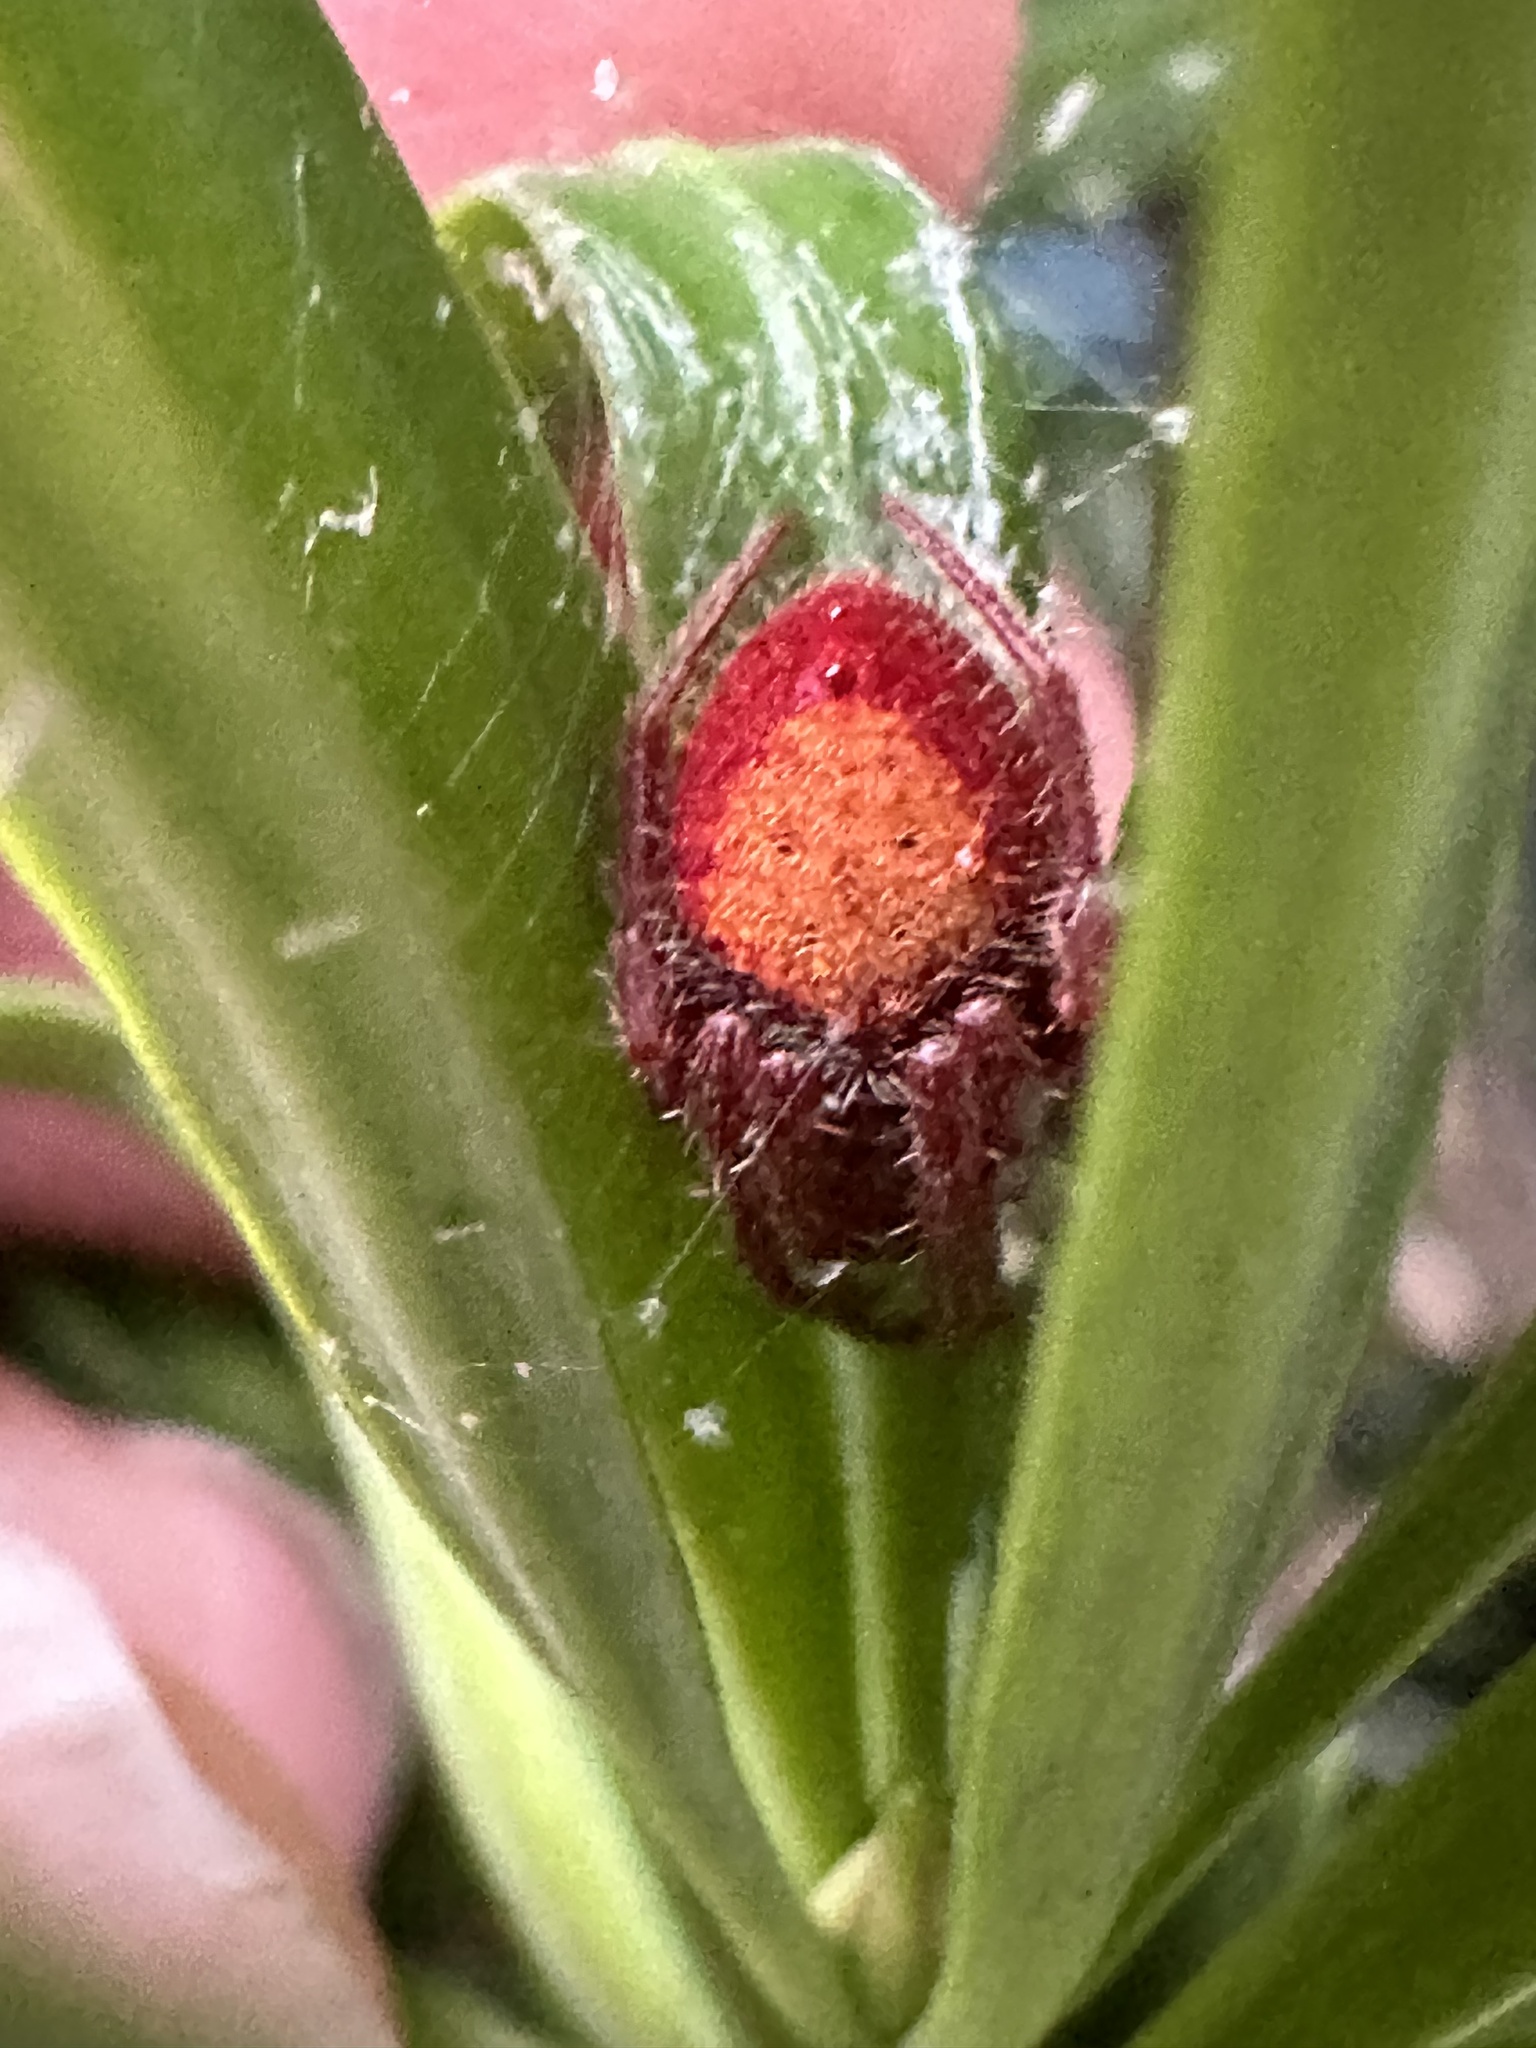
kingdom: Animalia
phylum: Arthropoda
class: Arachnida
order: Araneae
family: Araneidae
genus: Eriophora
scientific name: Eriophora ravilla
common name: Orb weavers
